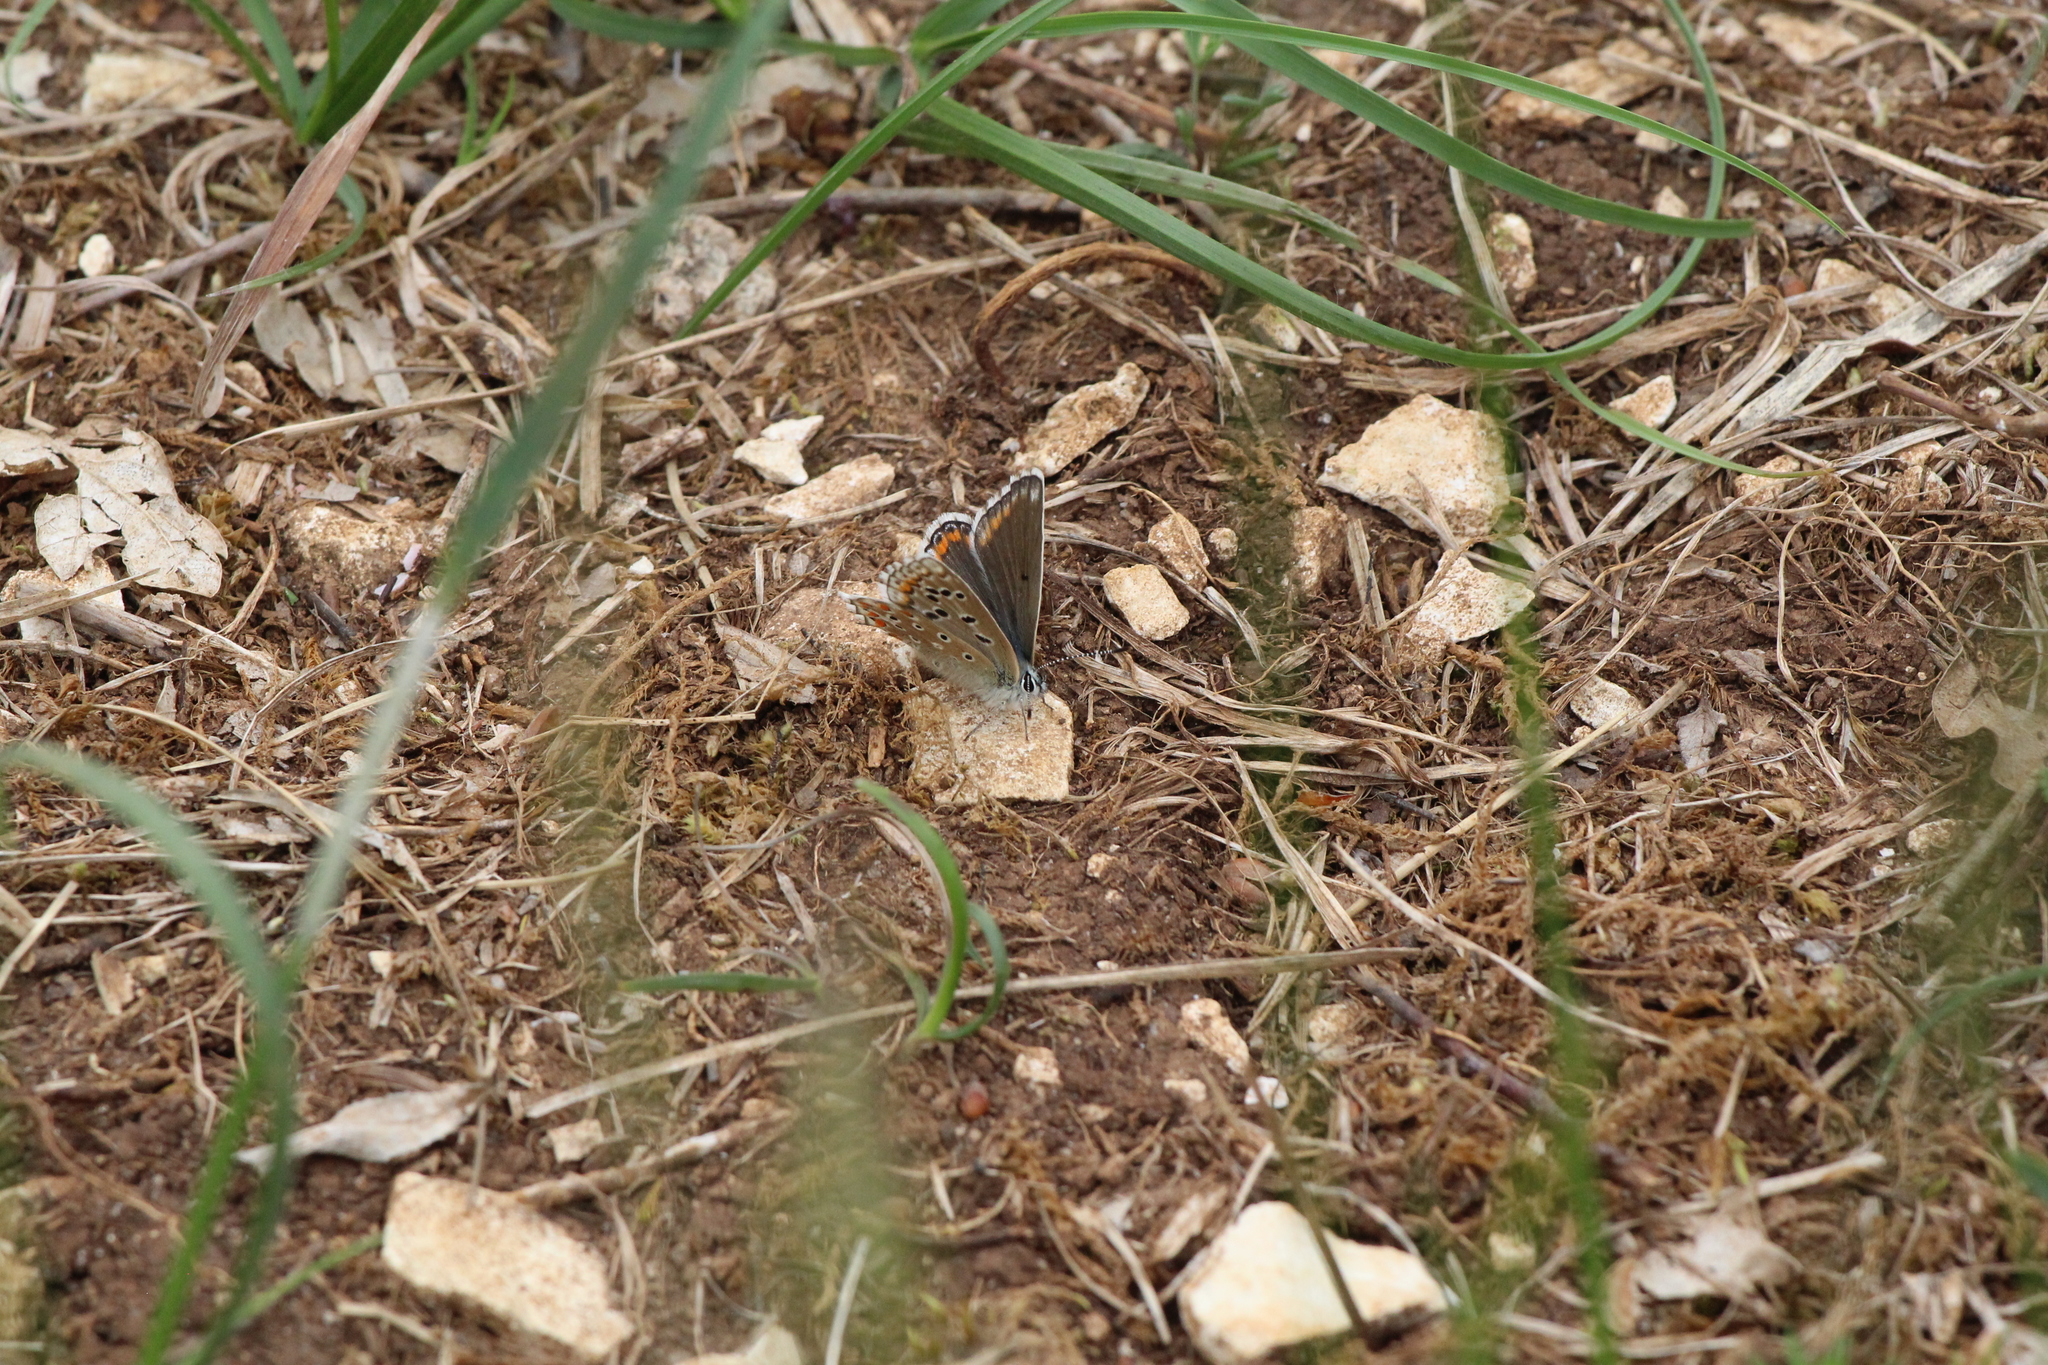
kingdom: Animalia
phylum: Arthropoda
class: Insecta
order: Lepidoptera
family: Lycaenidae
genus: Lysandra
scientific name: Lysandra bellargus
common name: Adonis blue
